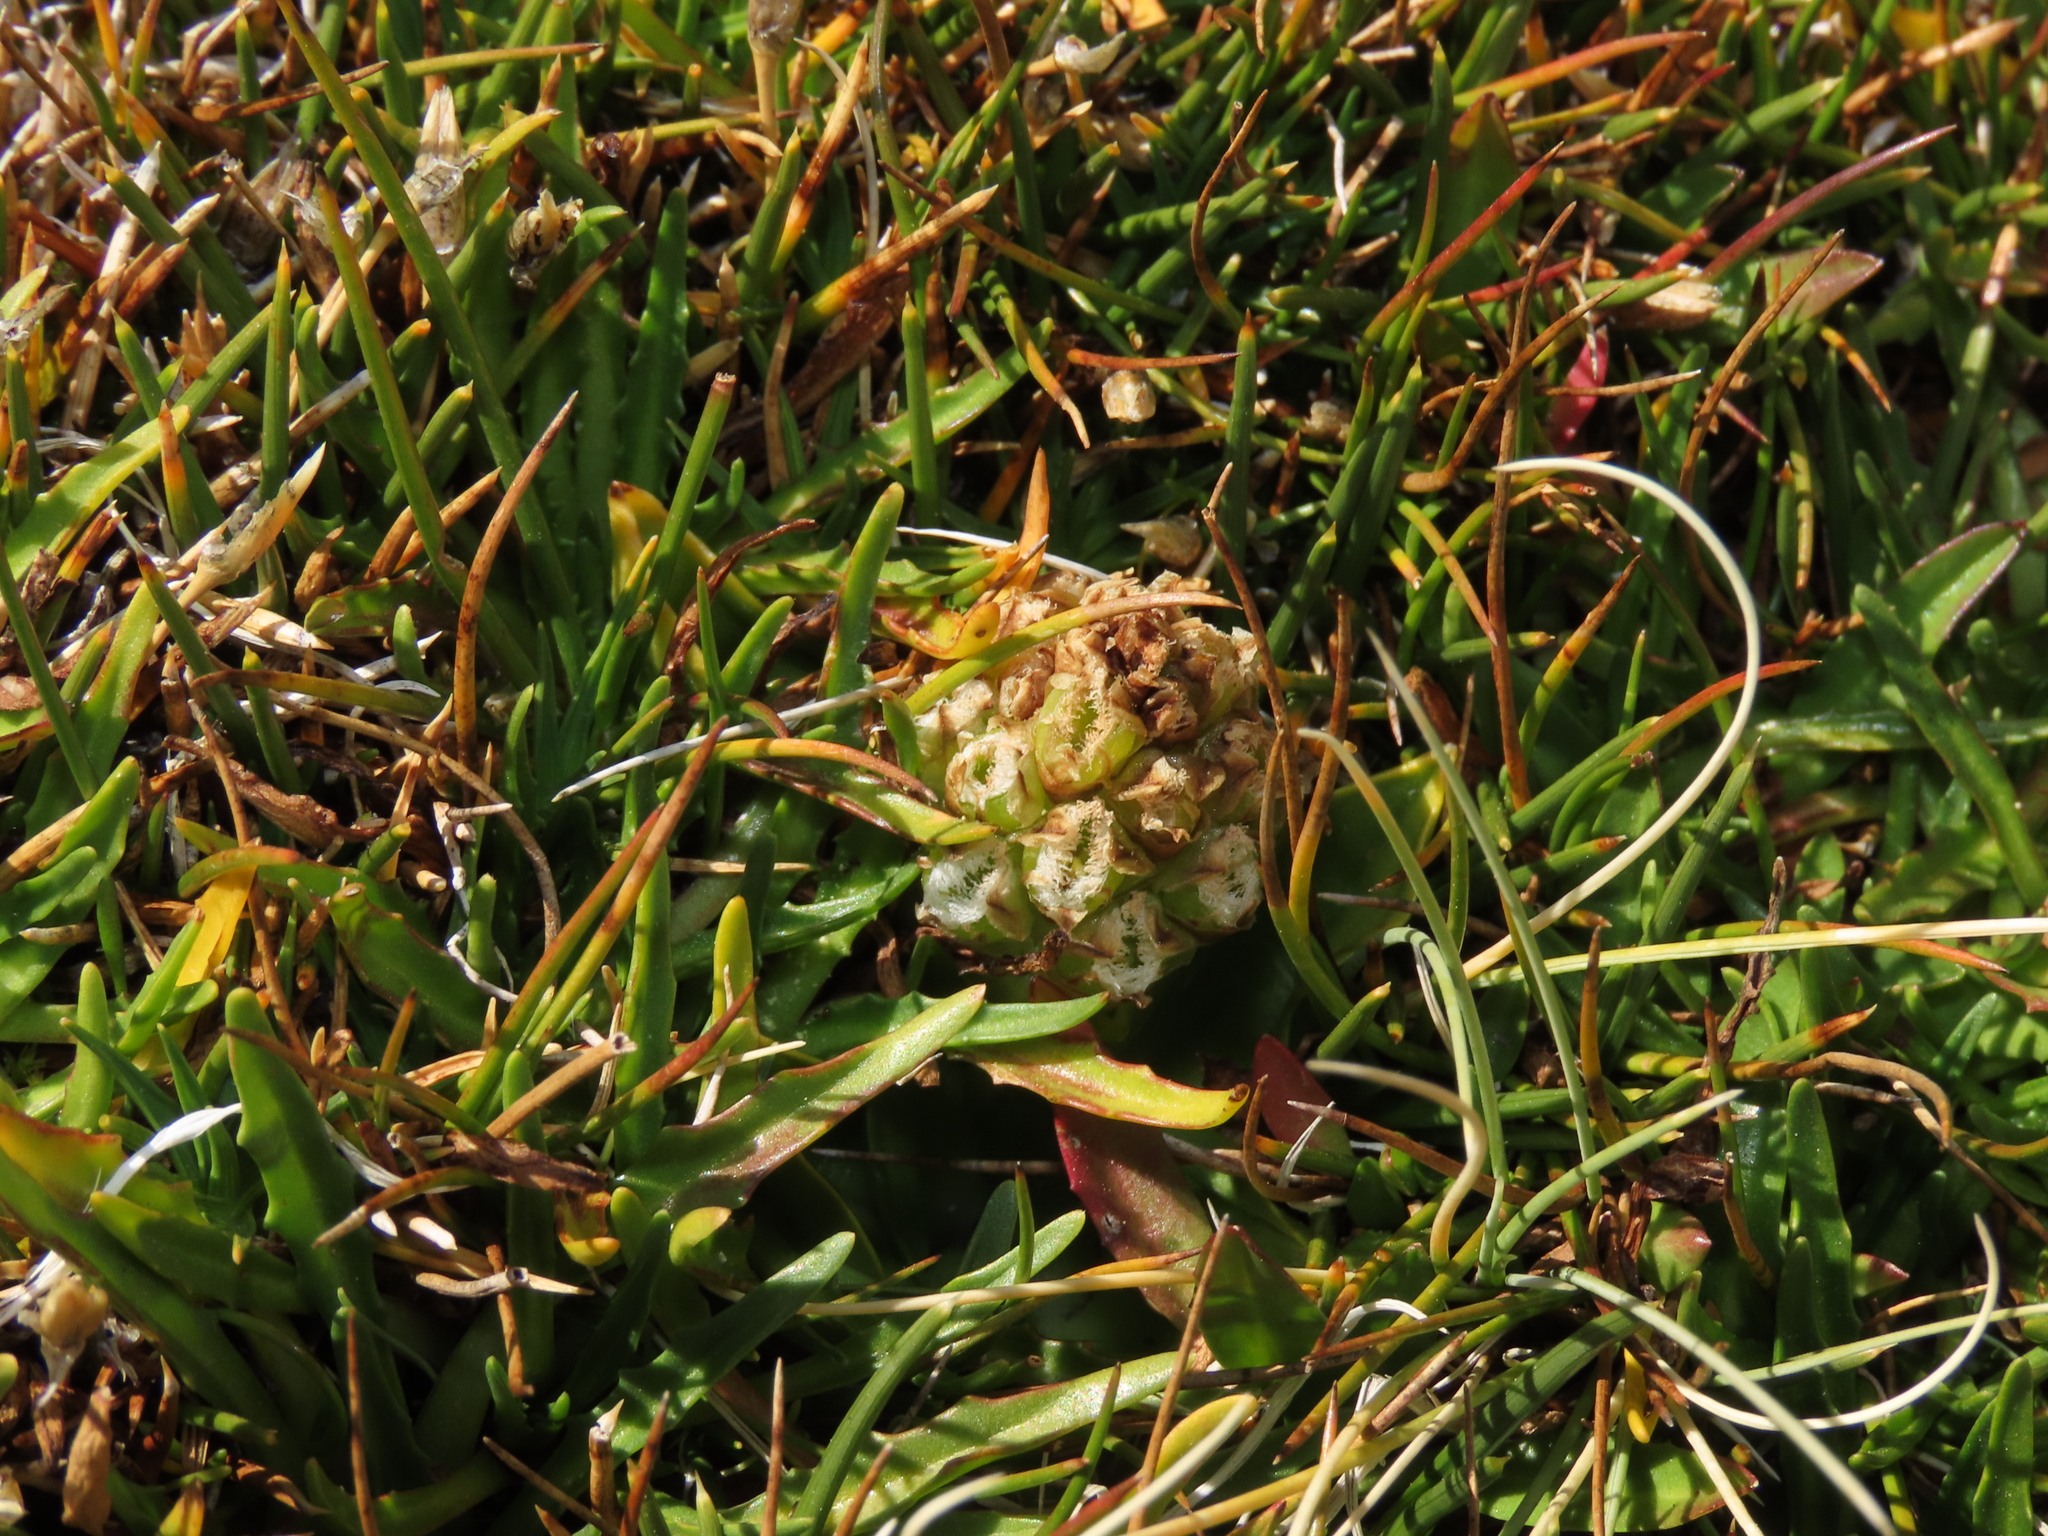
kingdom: Plantae
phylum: Tracheophyta
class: Liliopsida
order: Asparagales
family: Orchidaceae
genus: Myrosmodes
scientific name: Myrosmodes nervosa
